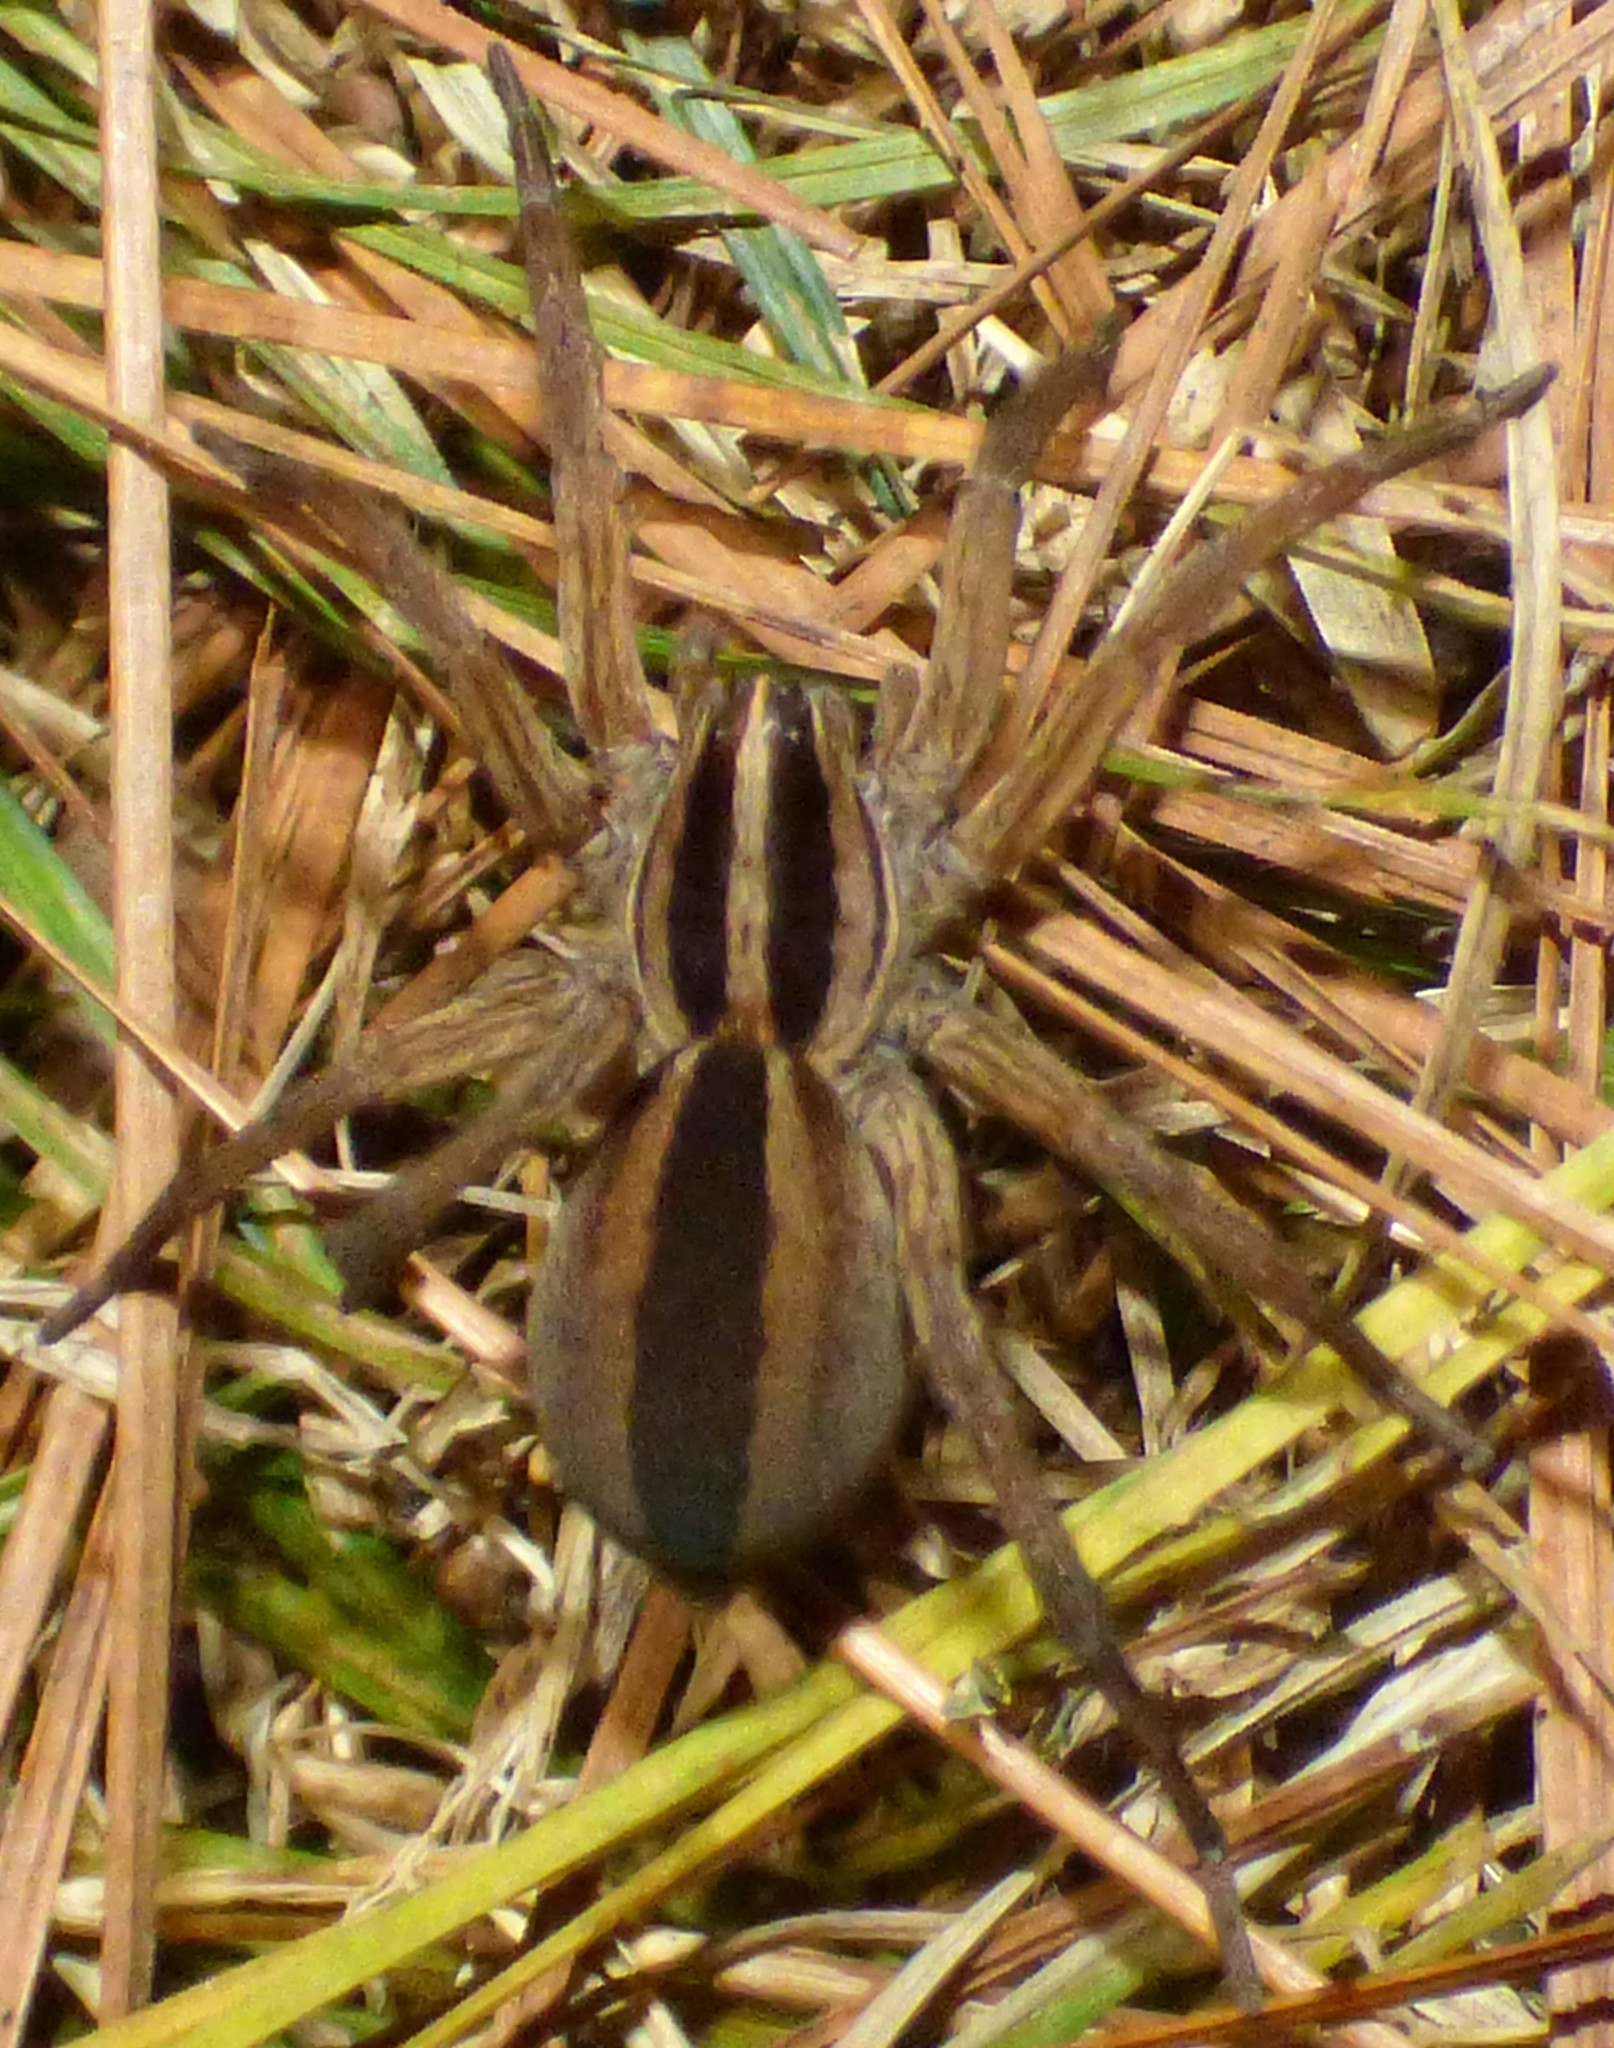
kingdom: Animalia
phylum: Arthropoda
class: Arachnida
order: Araneae
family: Lycosidae
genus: Rabidosa
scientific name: Rabidosa punctulata
